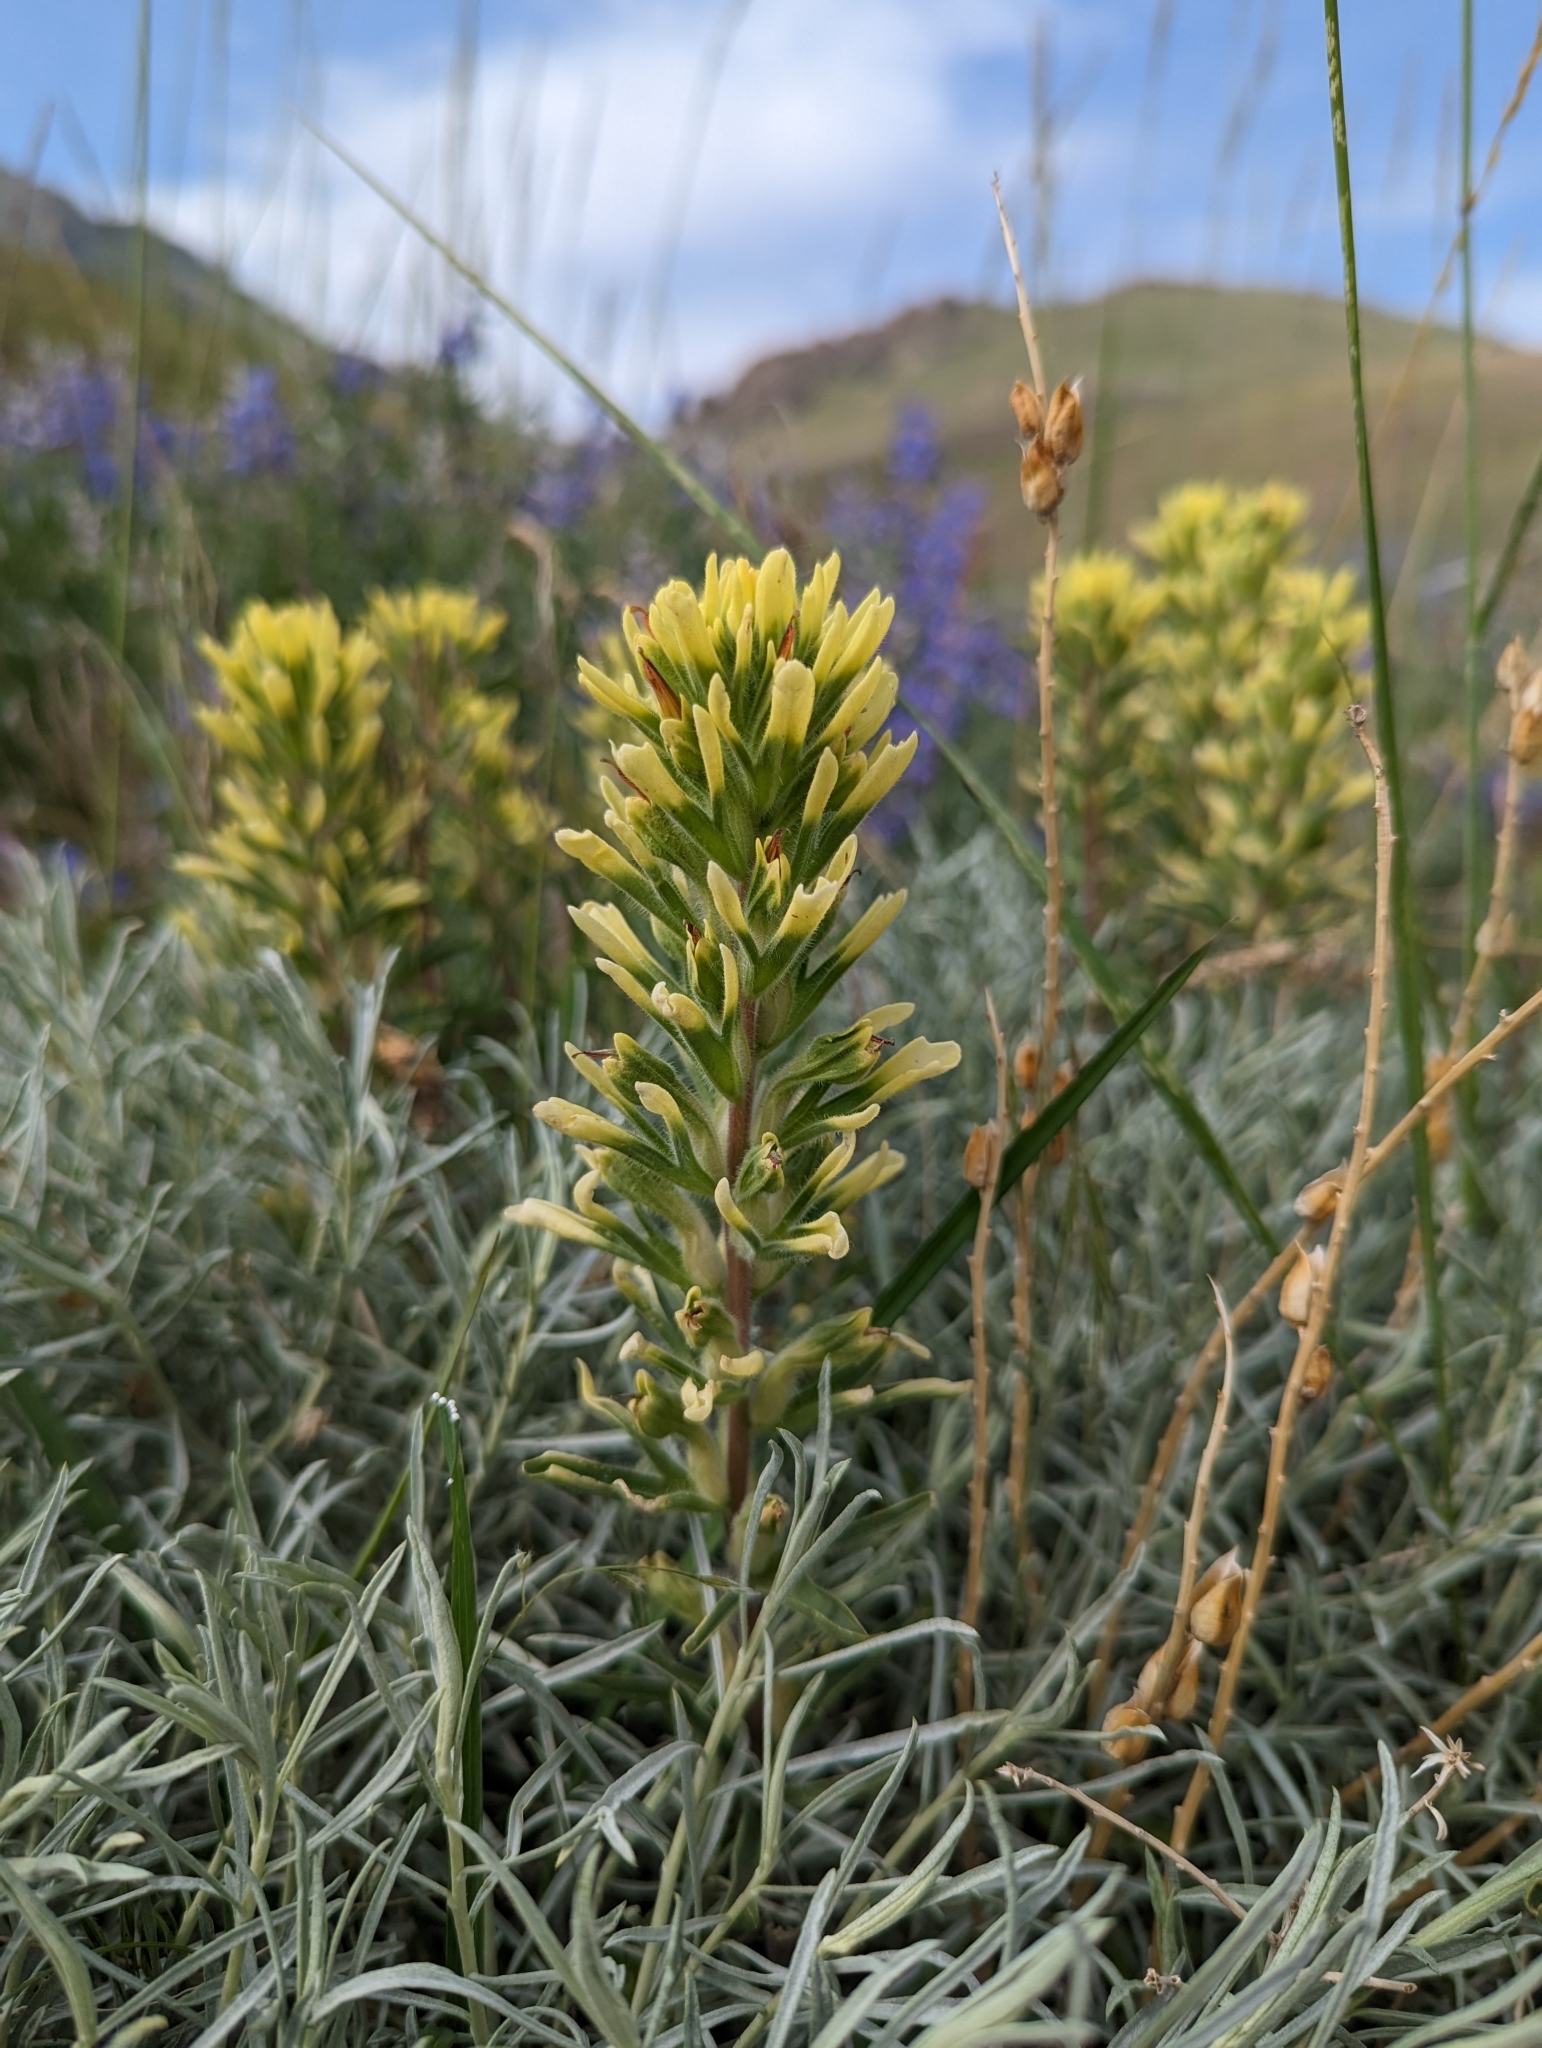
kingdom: Plantae
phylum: Tracheophyta
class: Magnoliopsida
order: Lamiales
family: Orobanchaceae
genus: Castilleja
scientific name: Castilleja angustifolia
